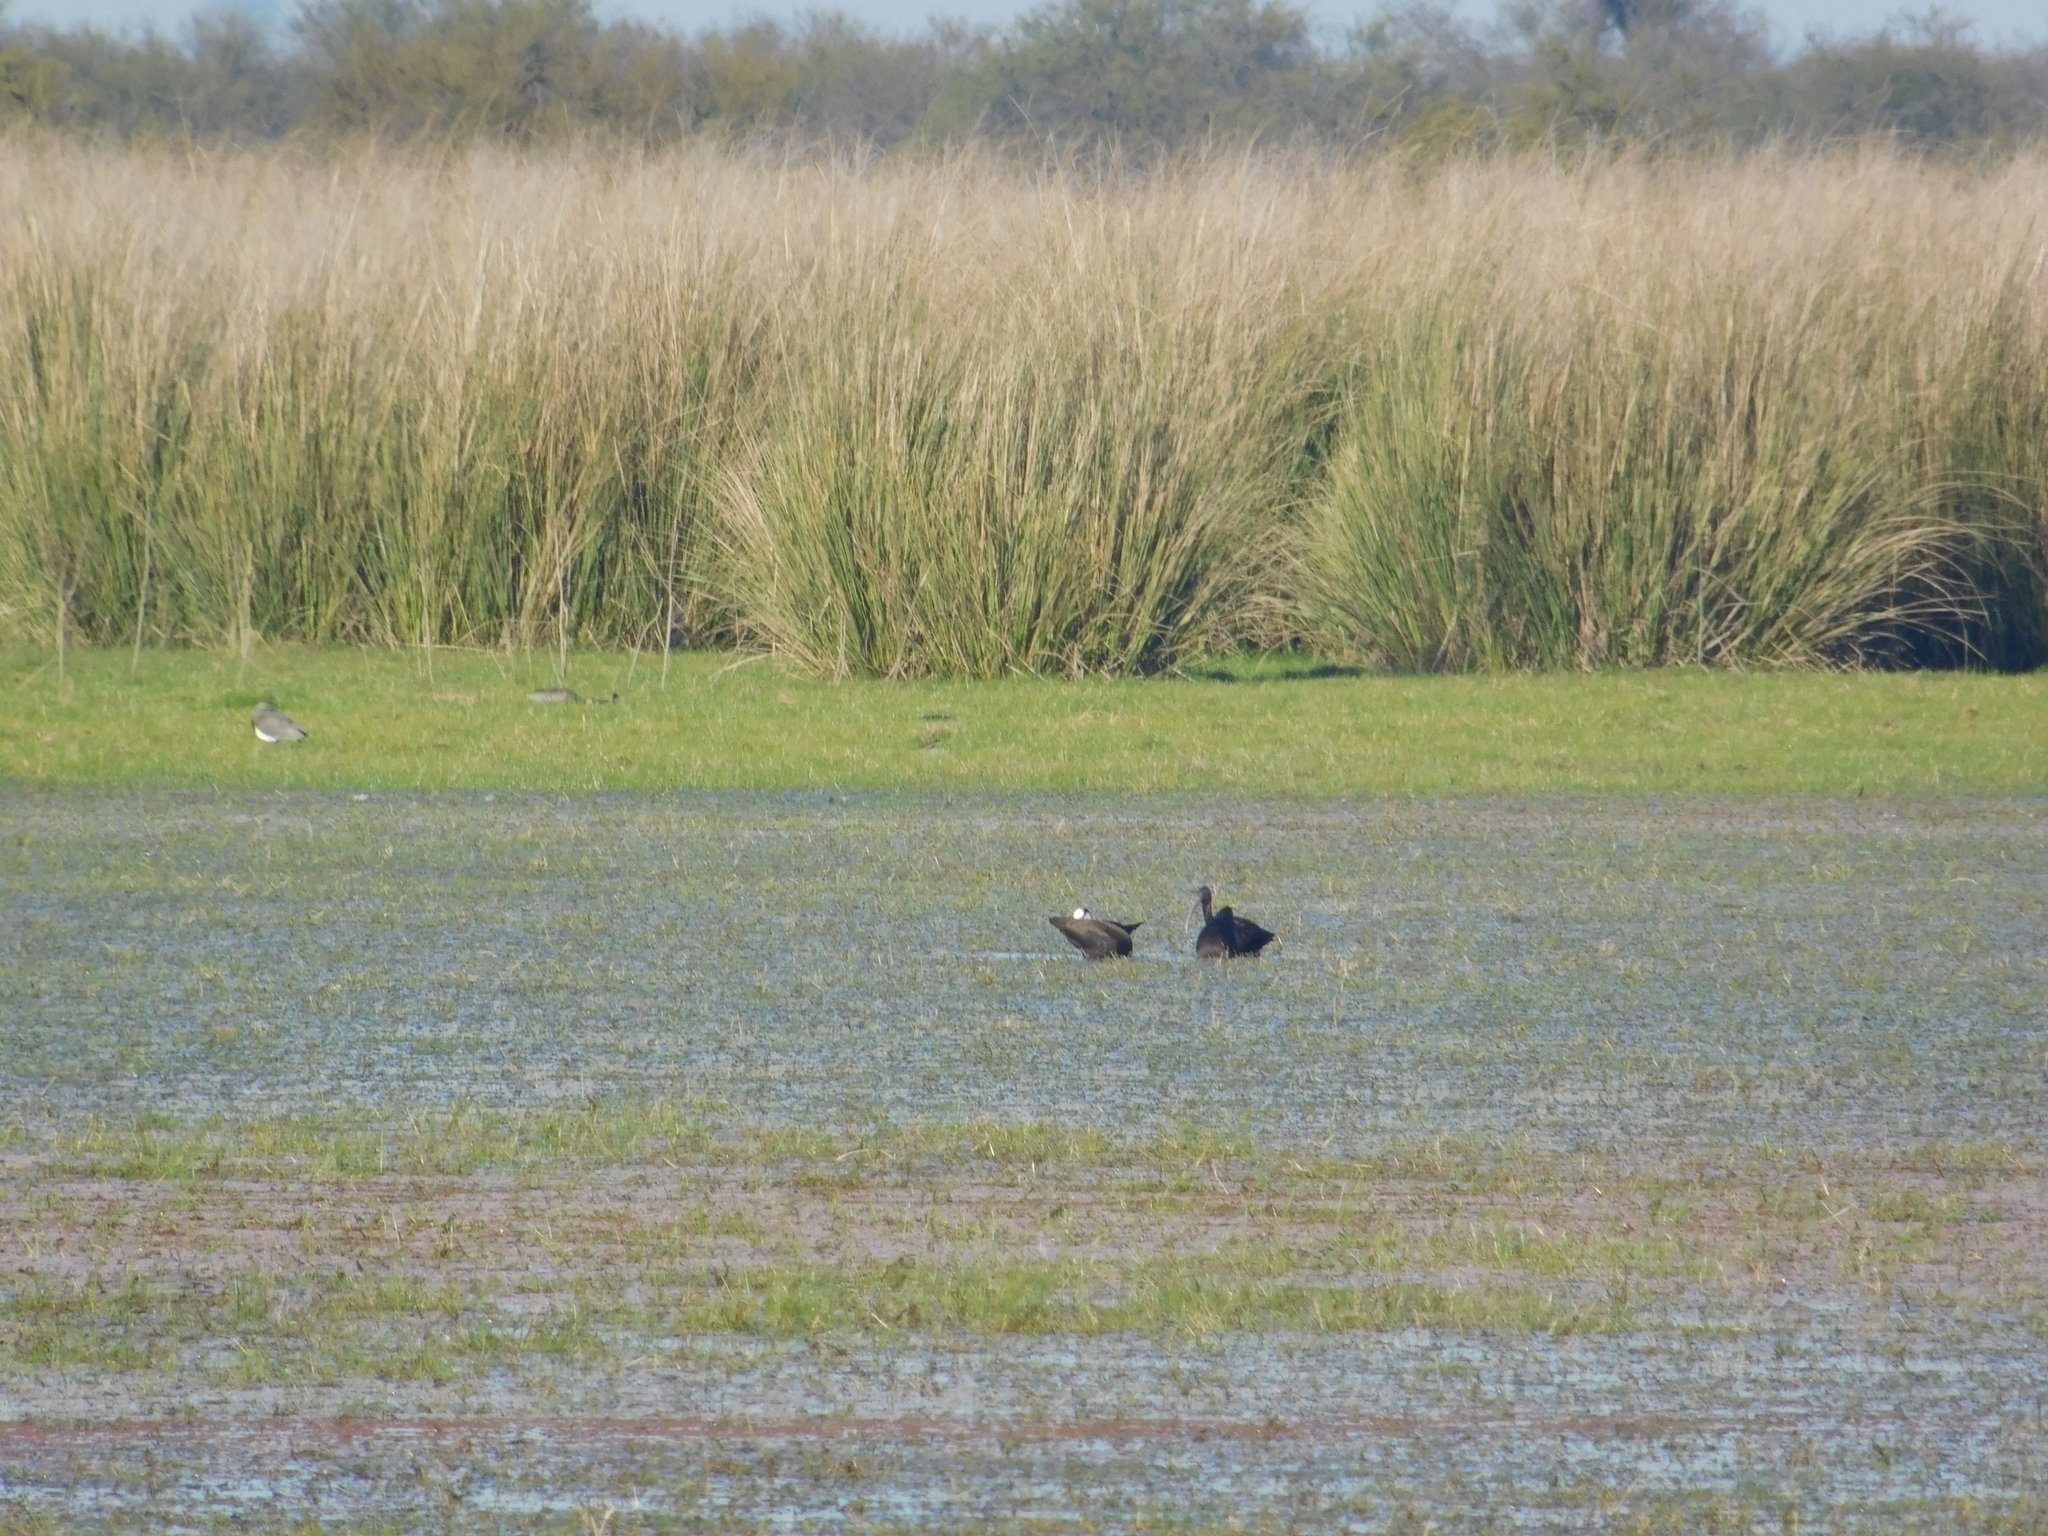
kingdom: Animalia
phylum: Chordata
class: Aves
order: Pelecaniformes
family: Threskiornithidae
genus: Plegadis
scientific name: Plegadis chihi
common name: White-faced ibis
